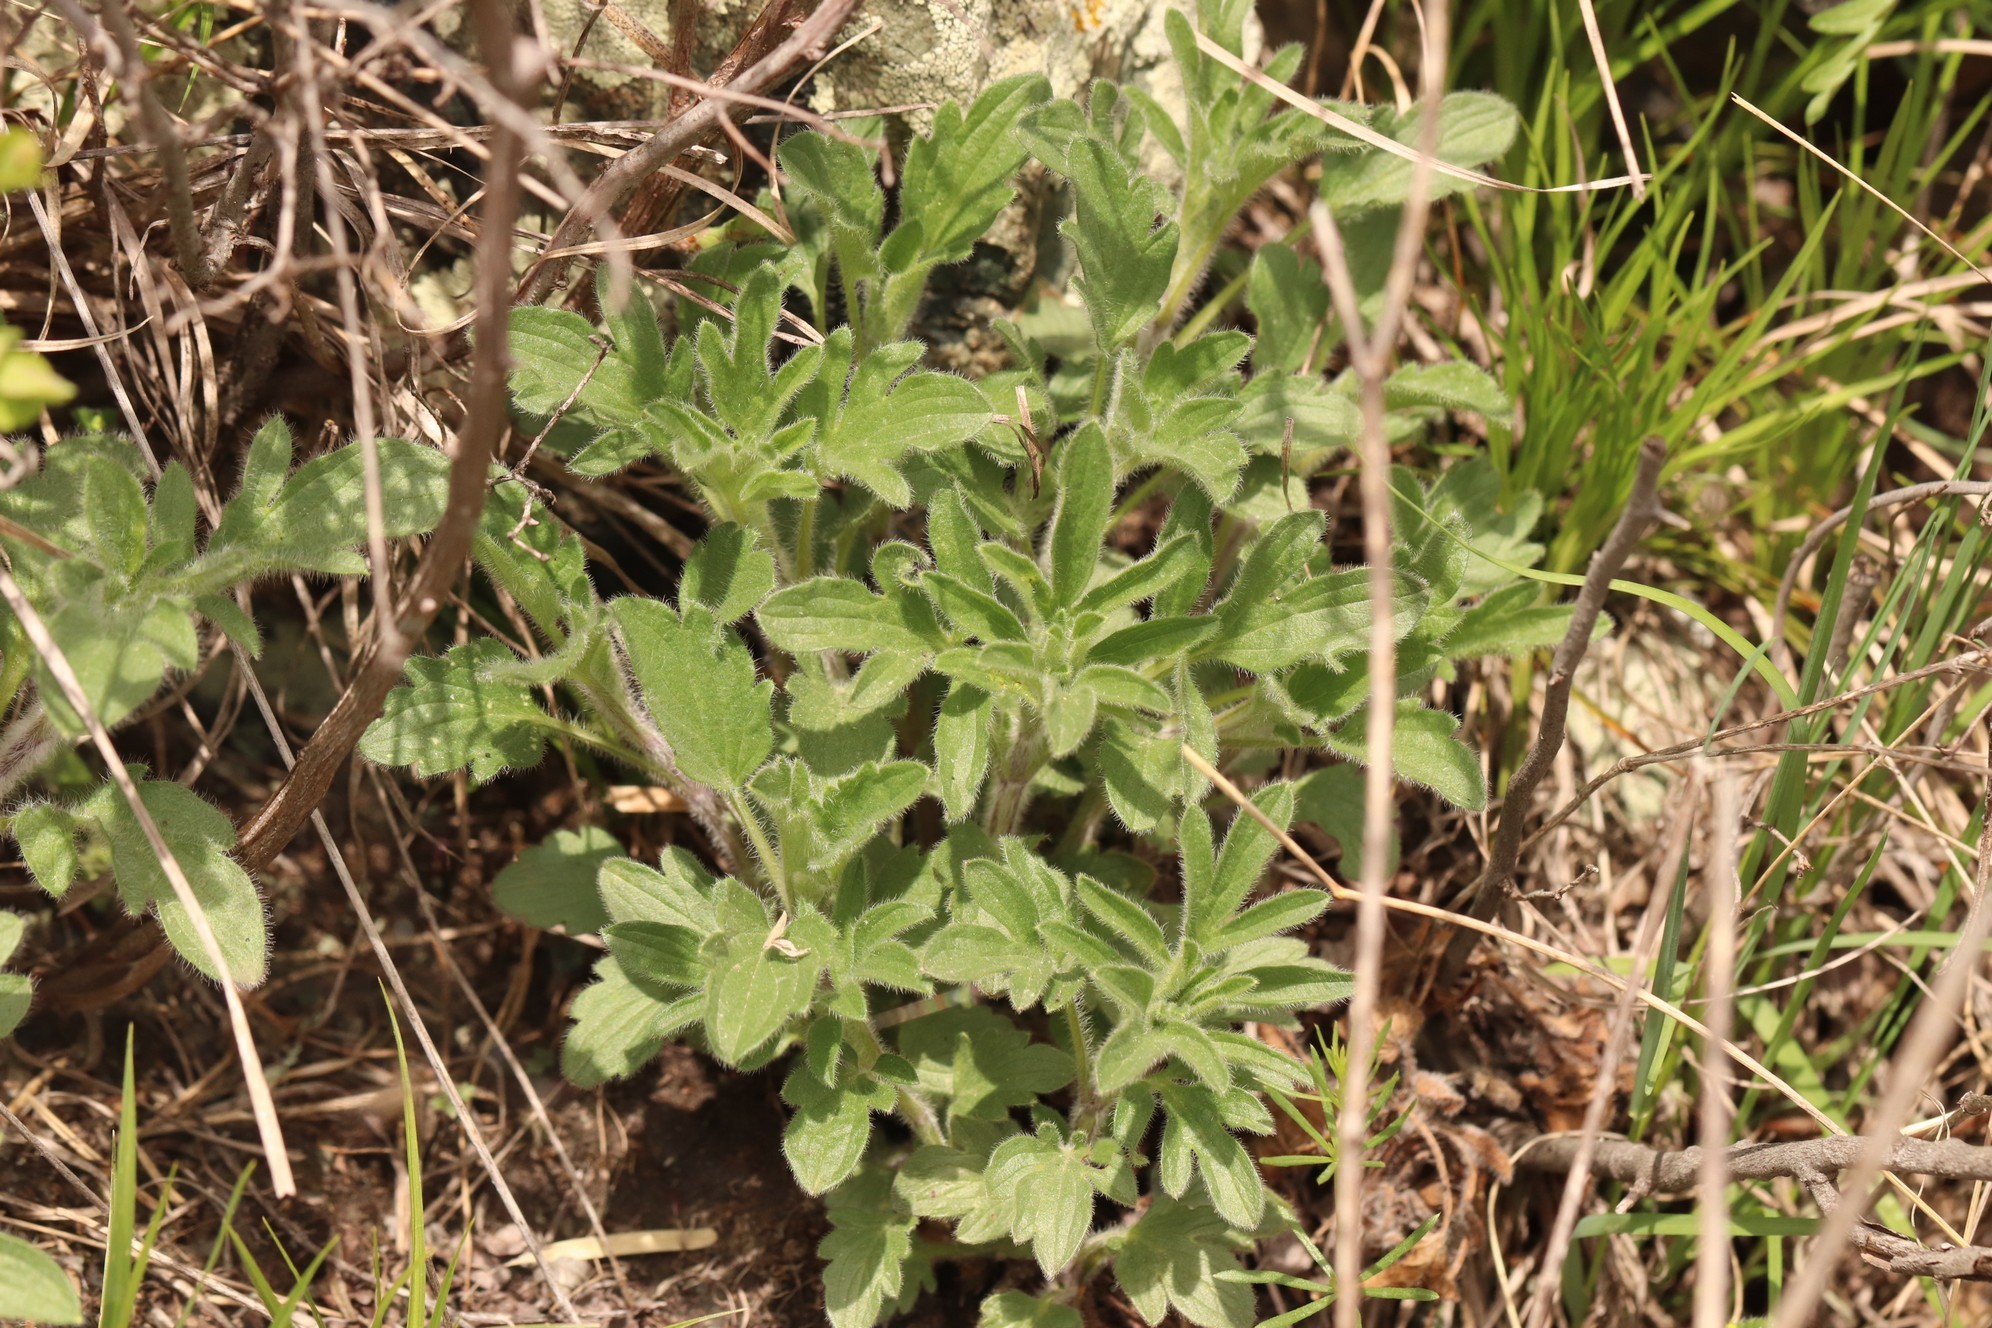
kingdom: Plantae
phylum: Tracheophyta
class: Magnoliopsida
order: Lamiales
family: Lamiaceae
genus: Nepeta
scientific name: Nepeta multifida
